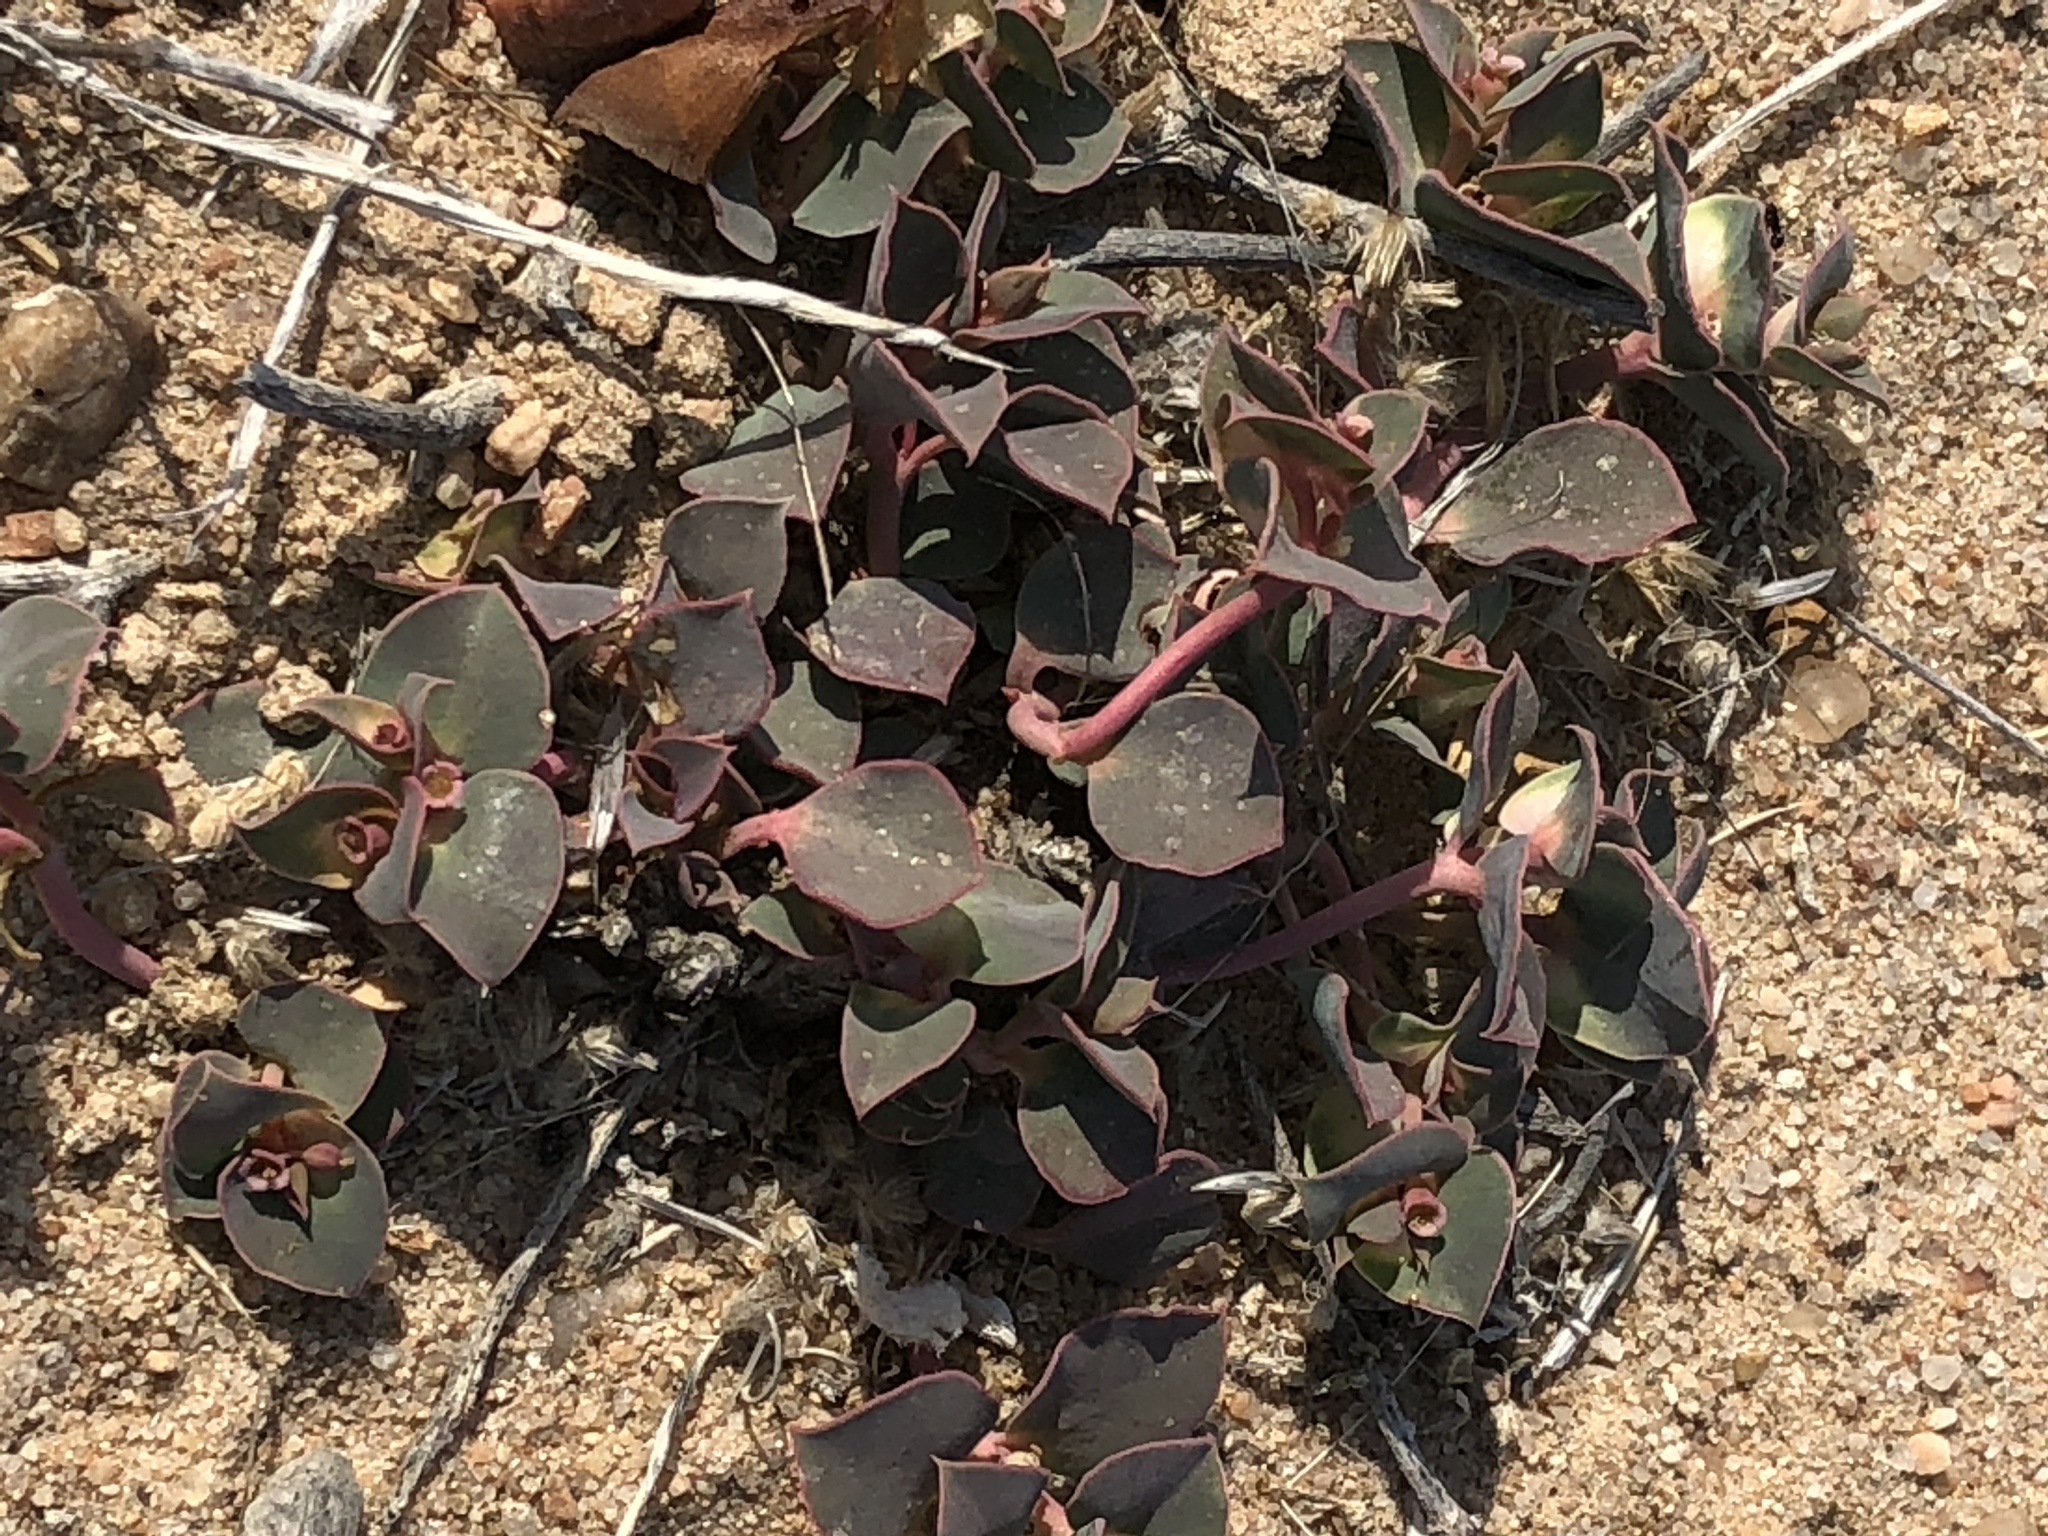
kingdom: Plantae
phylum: Tracheophyta
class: Magnoliopsida
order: Malpighiales
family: Euphorbiaceae
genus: Euphorbia
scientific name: Euphorbia phylloclada
